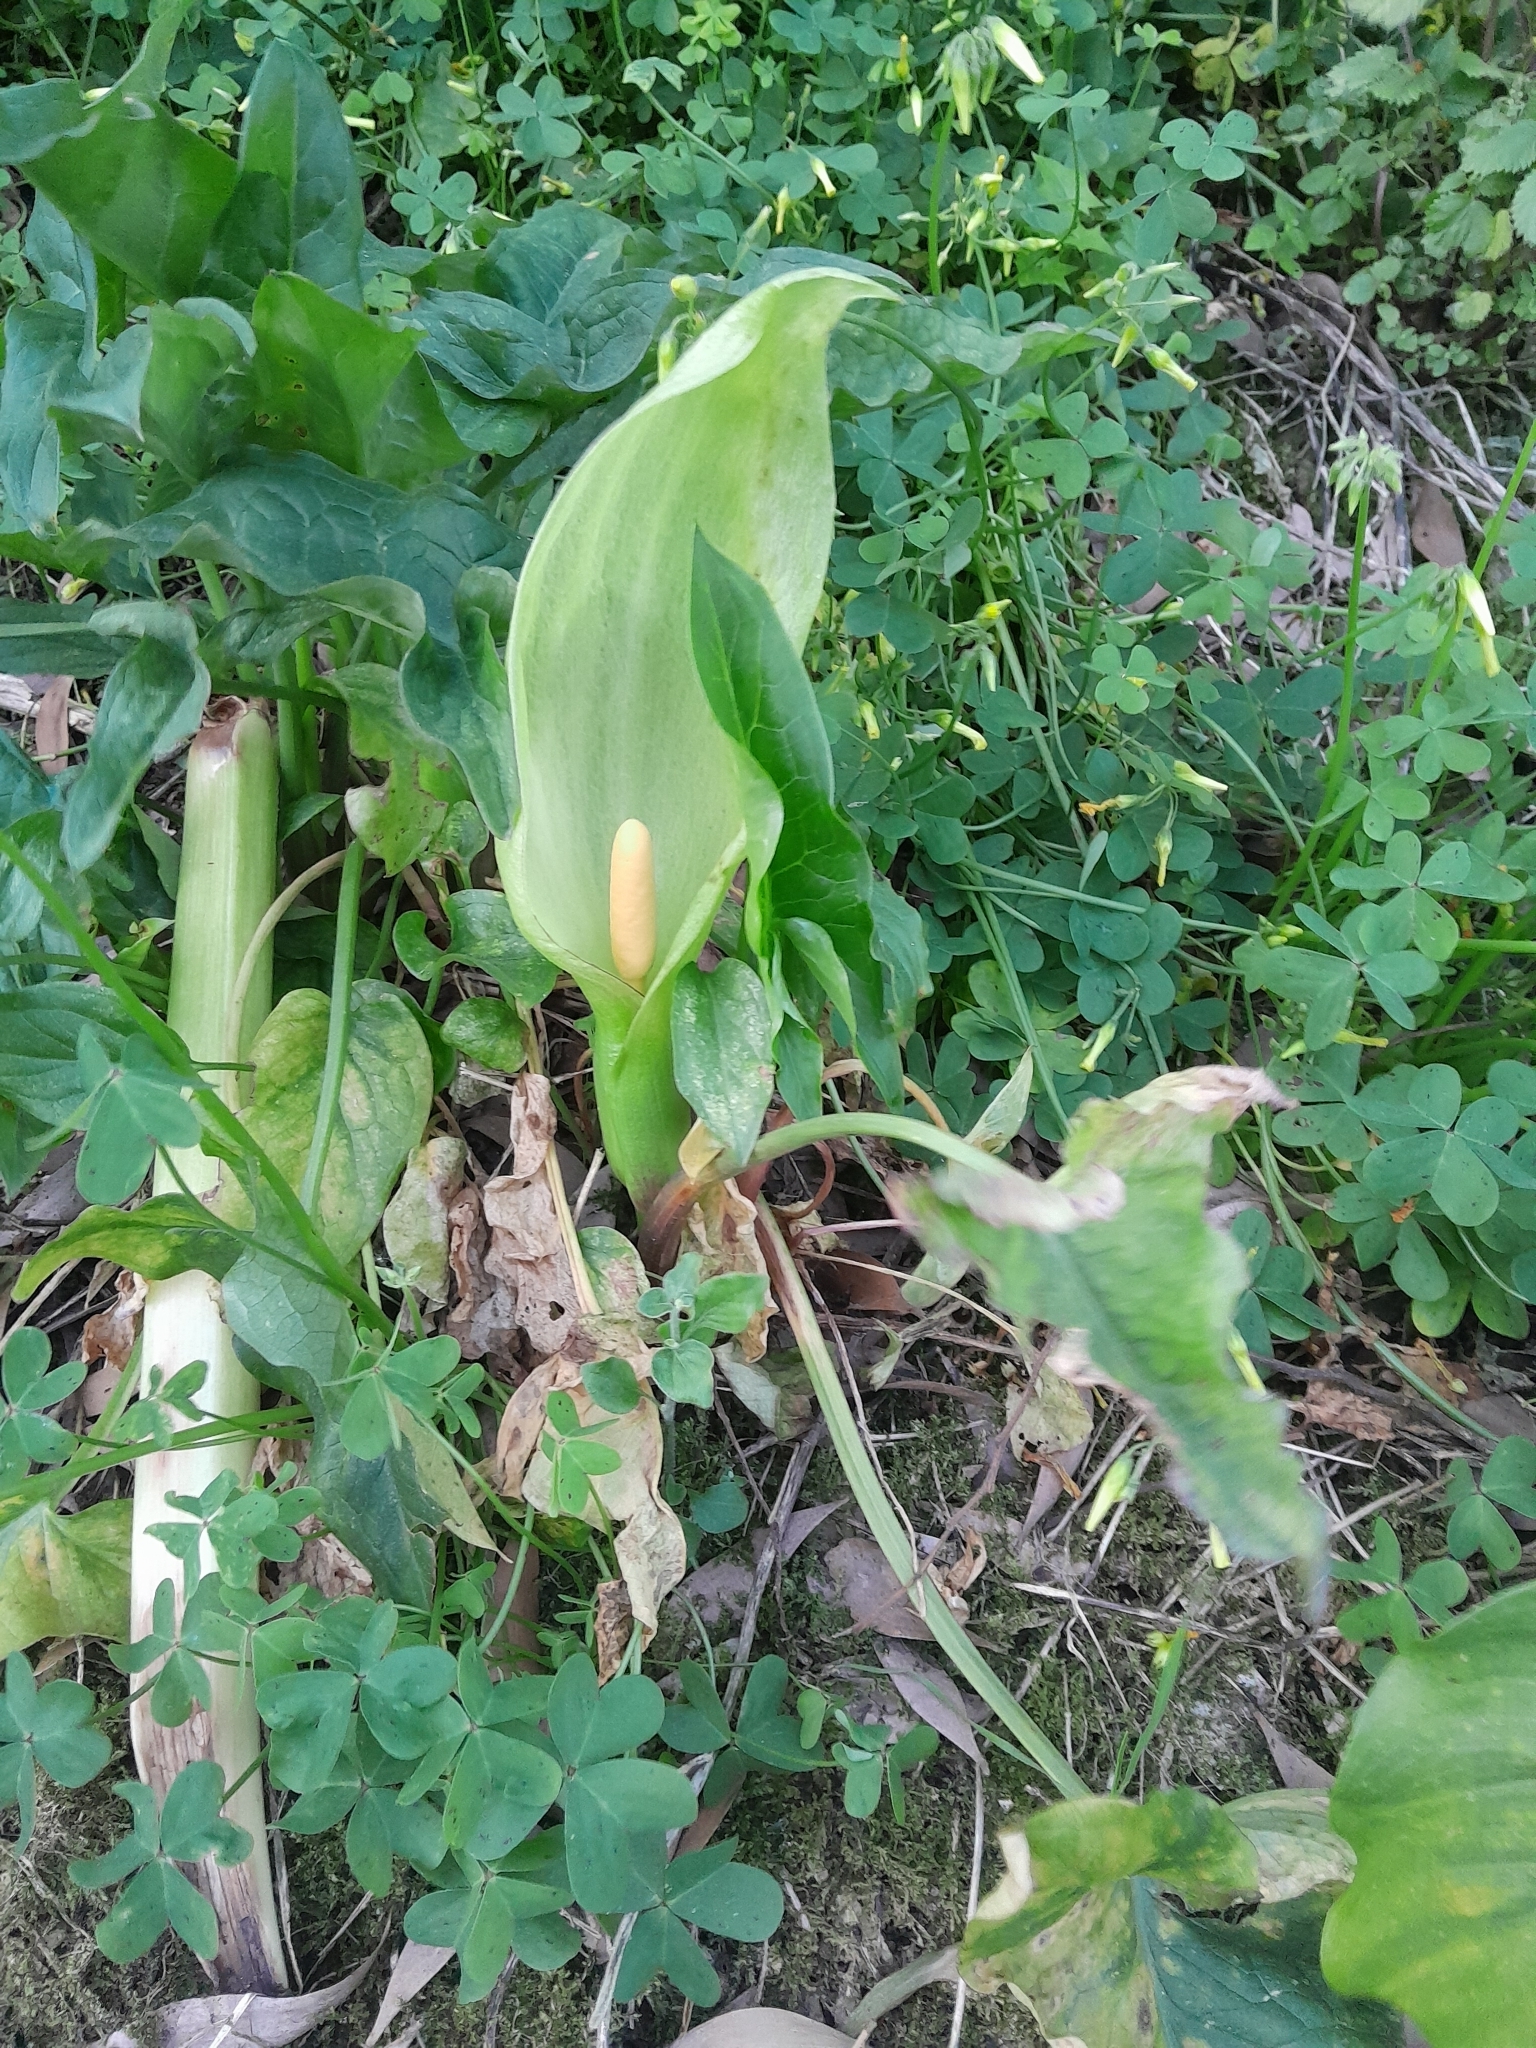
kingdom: Plantae
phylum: Tracheophyta
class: Liliopsida
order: Alismatales
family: Araceae
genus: Arum
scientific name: Arum italicum
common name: Italian lords-and-ladies
